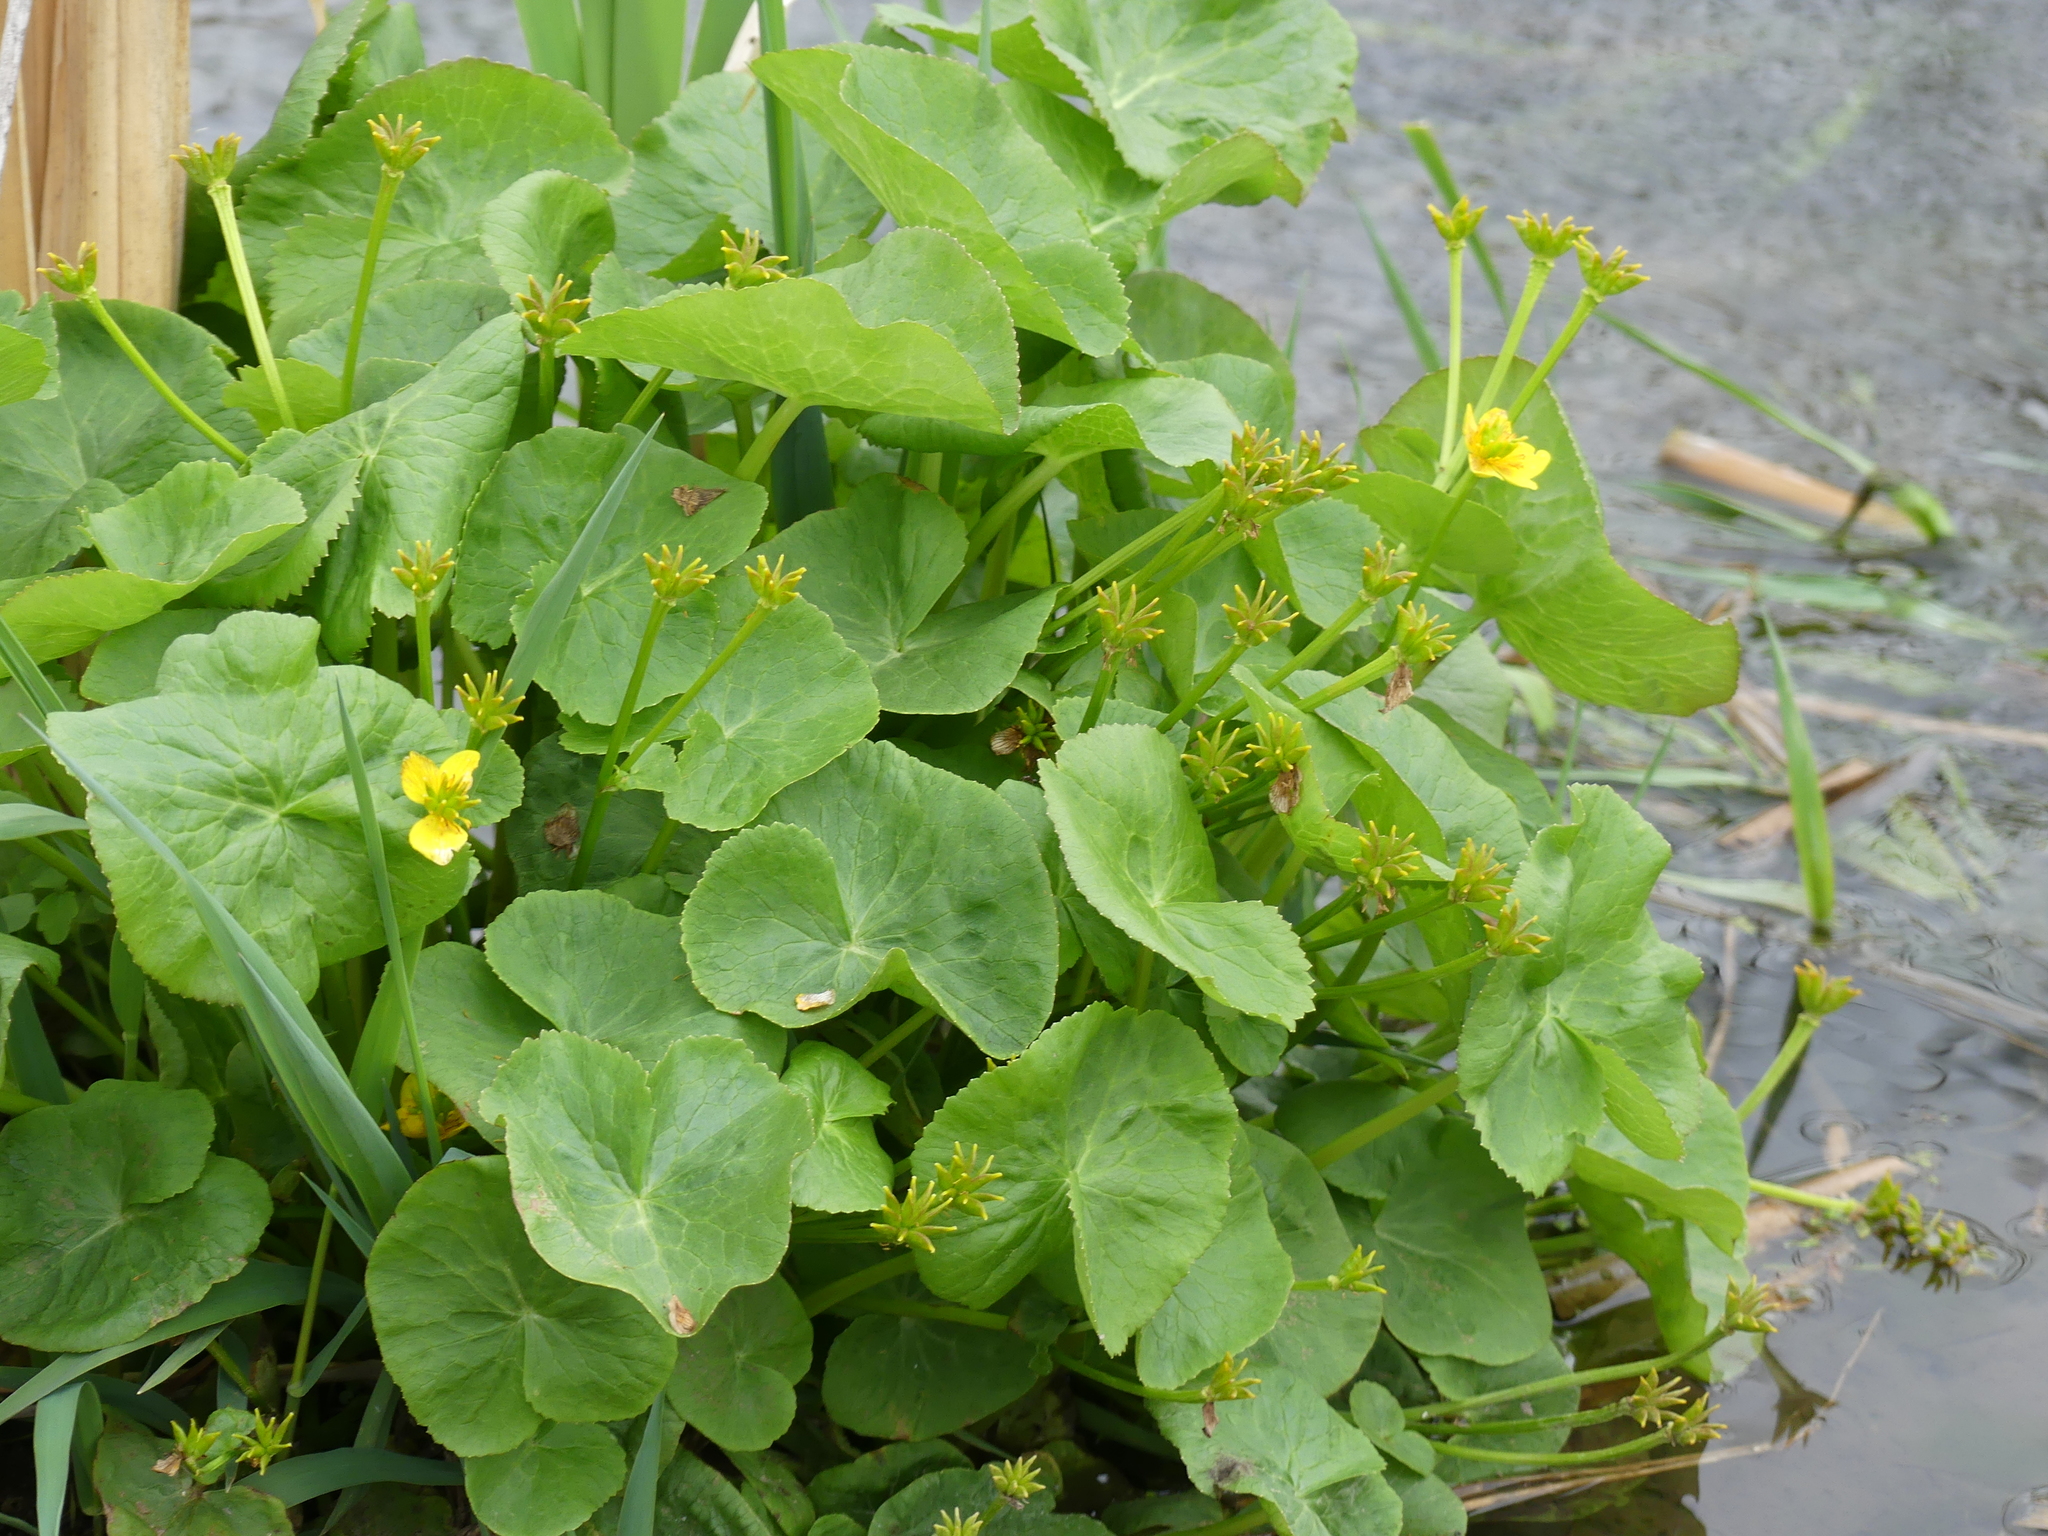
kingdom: Plantae
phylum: Tracheophyta
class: Magnoliopsida
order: Ranunculales
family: Ranunculaceae
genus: Caltha
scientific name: Caltha palustris
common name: Marsh marigold
